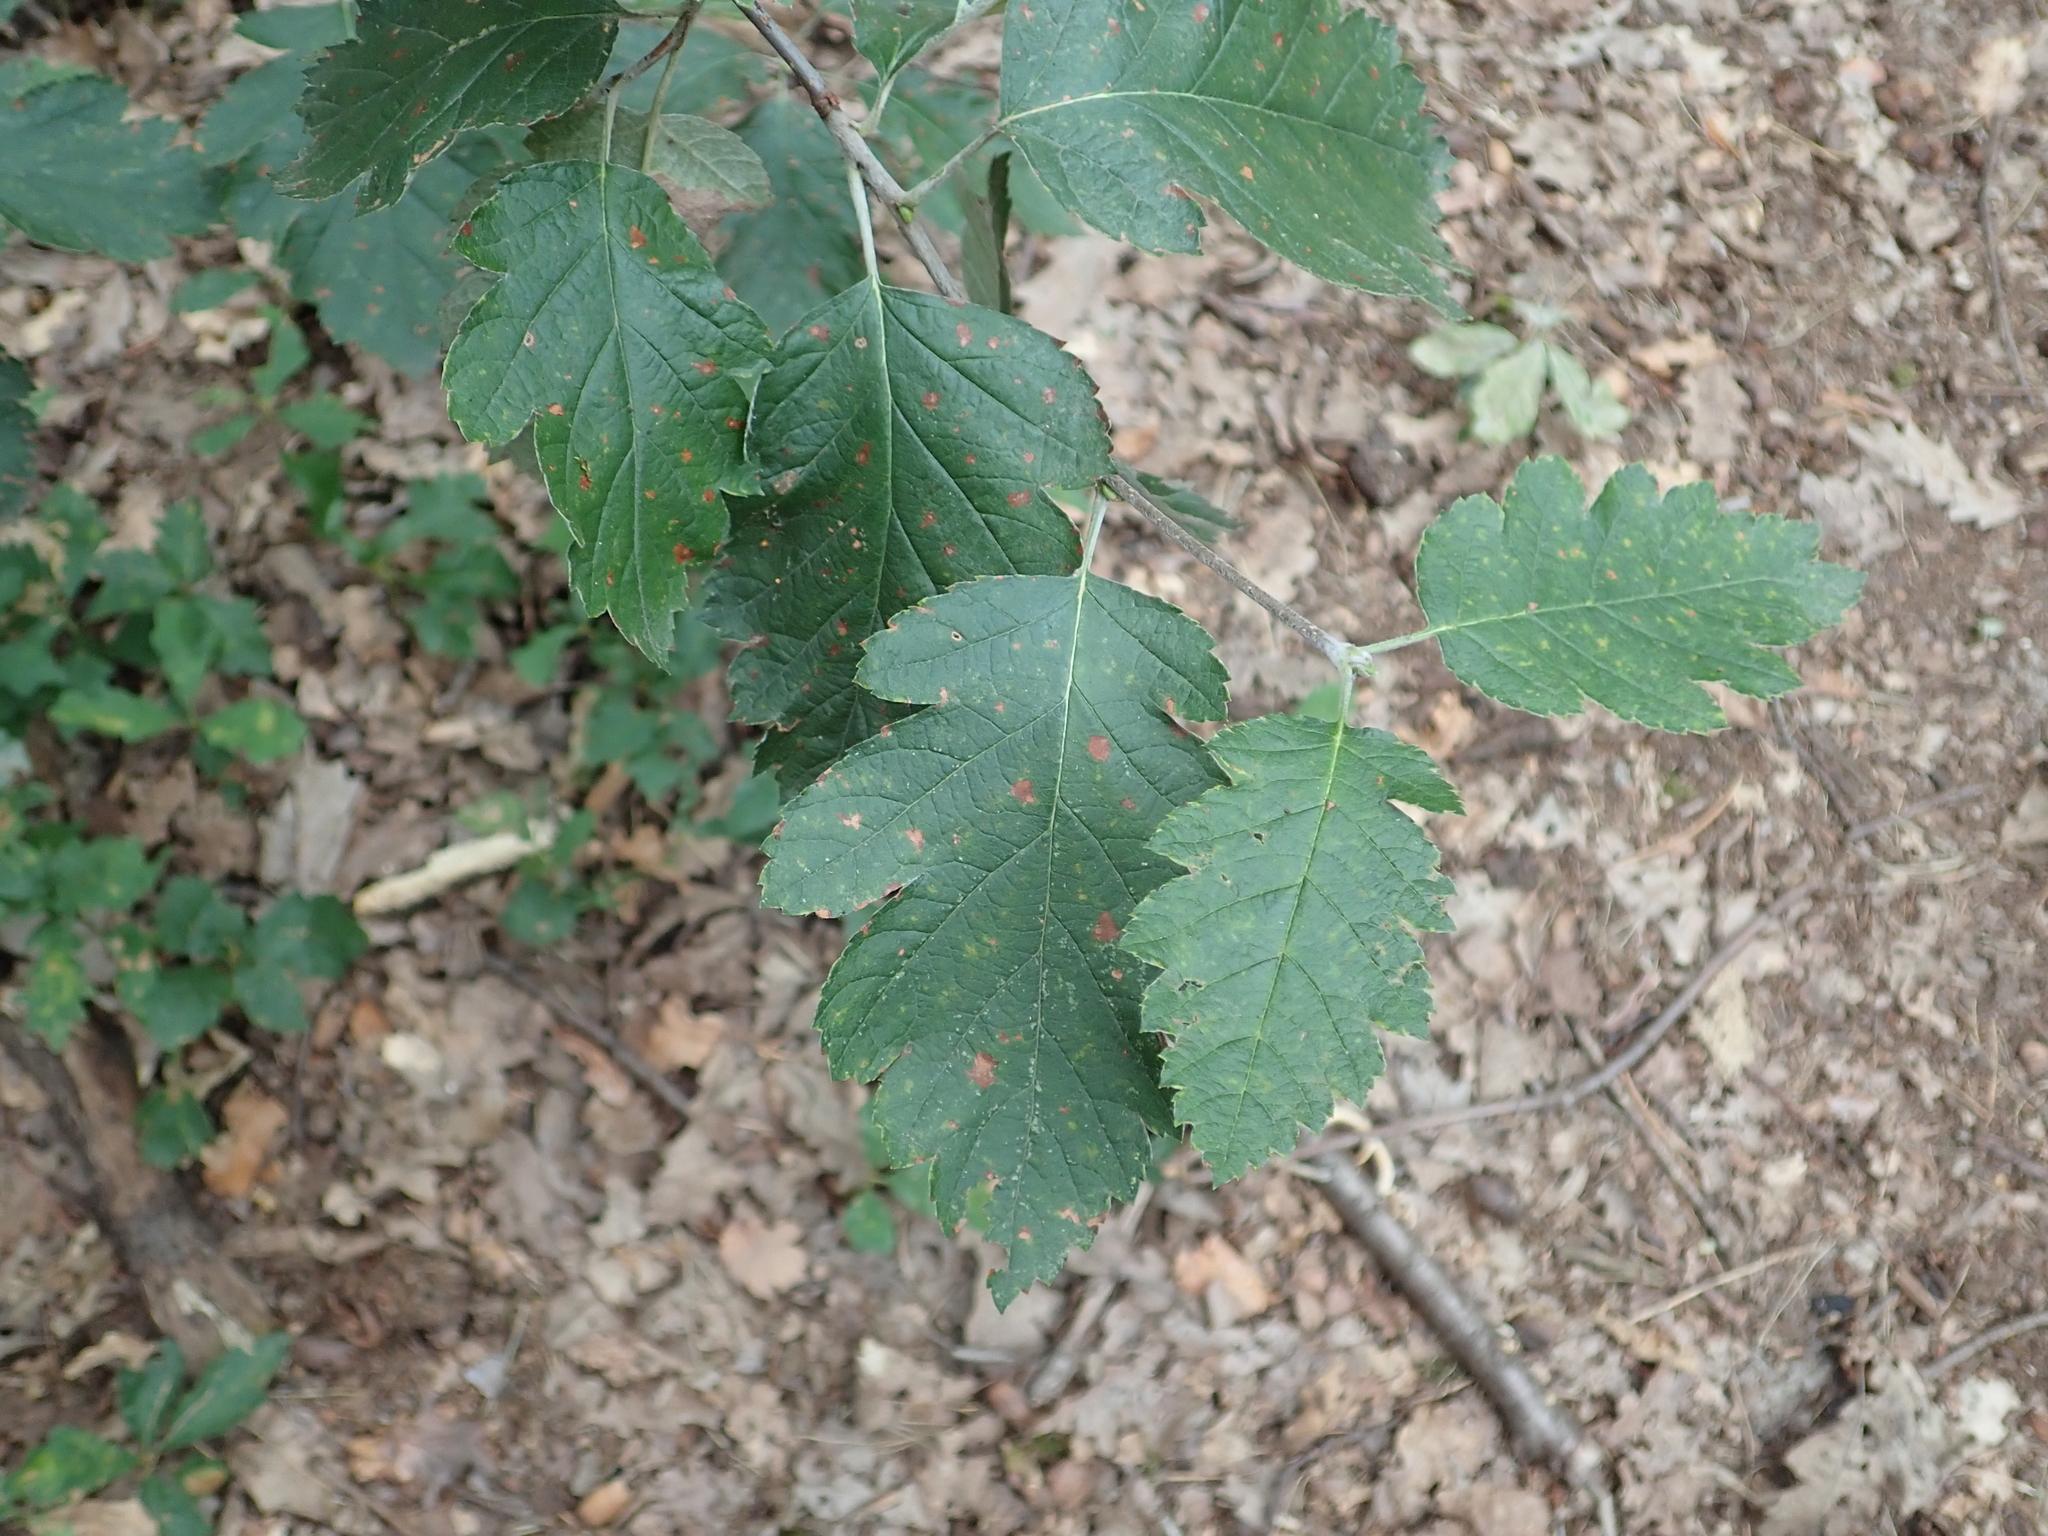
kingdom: Plantae
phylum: Tracheophyta
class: Magnoliopsida
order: Rosales
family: Rosaceae
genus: Scandosorbus
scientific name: Scandosorbus intermedia
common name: Swedish whitebeam
